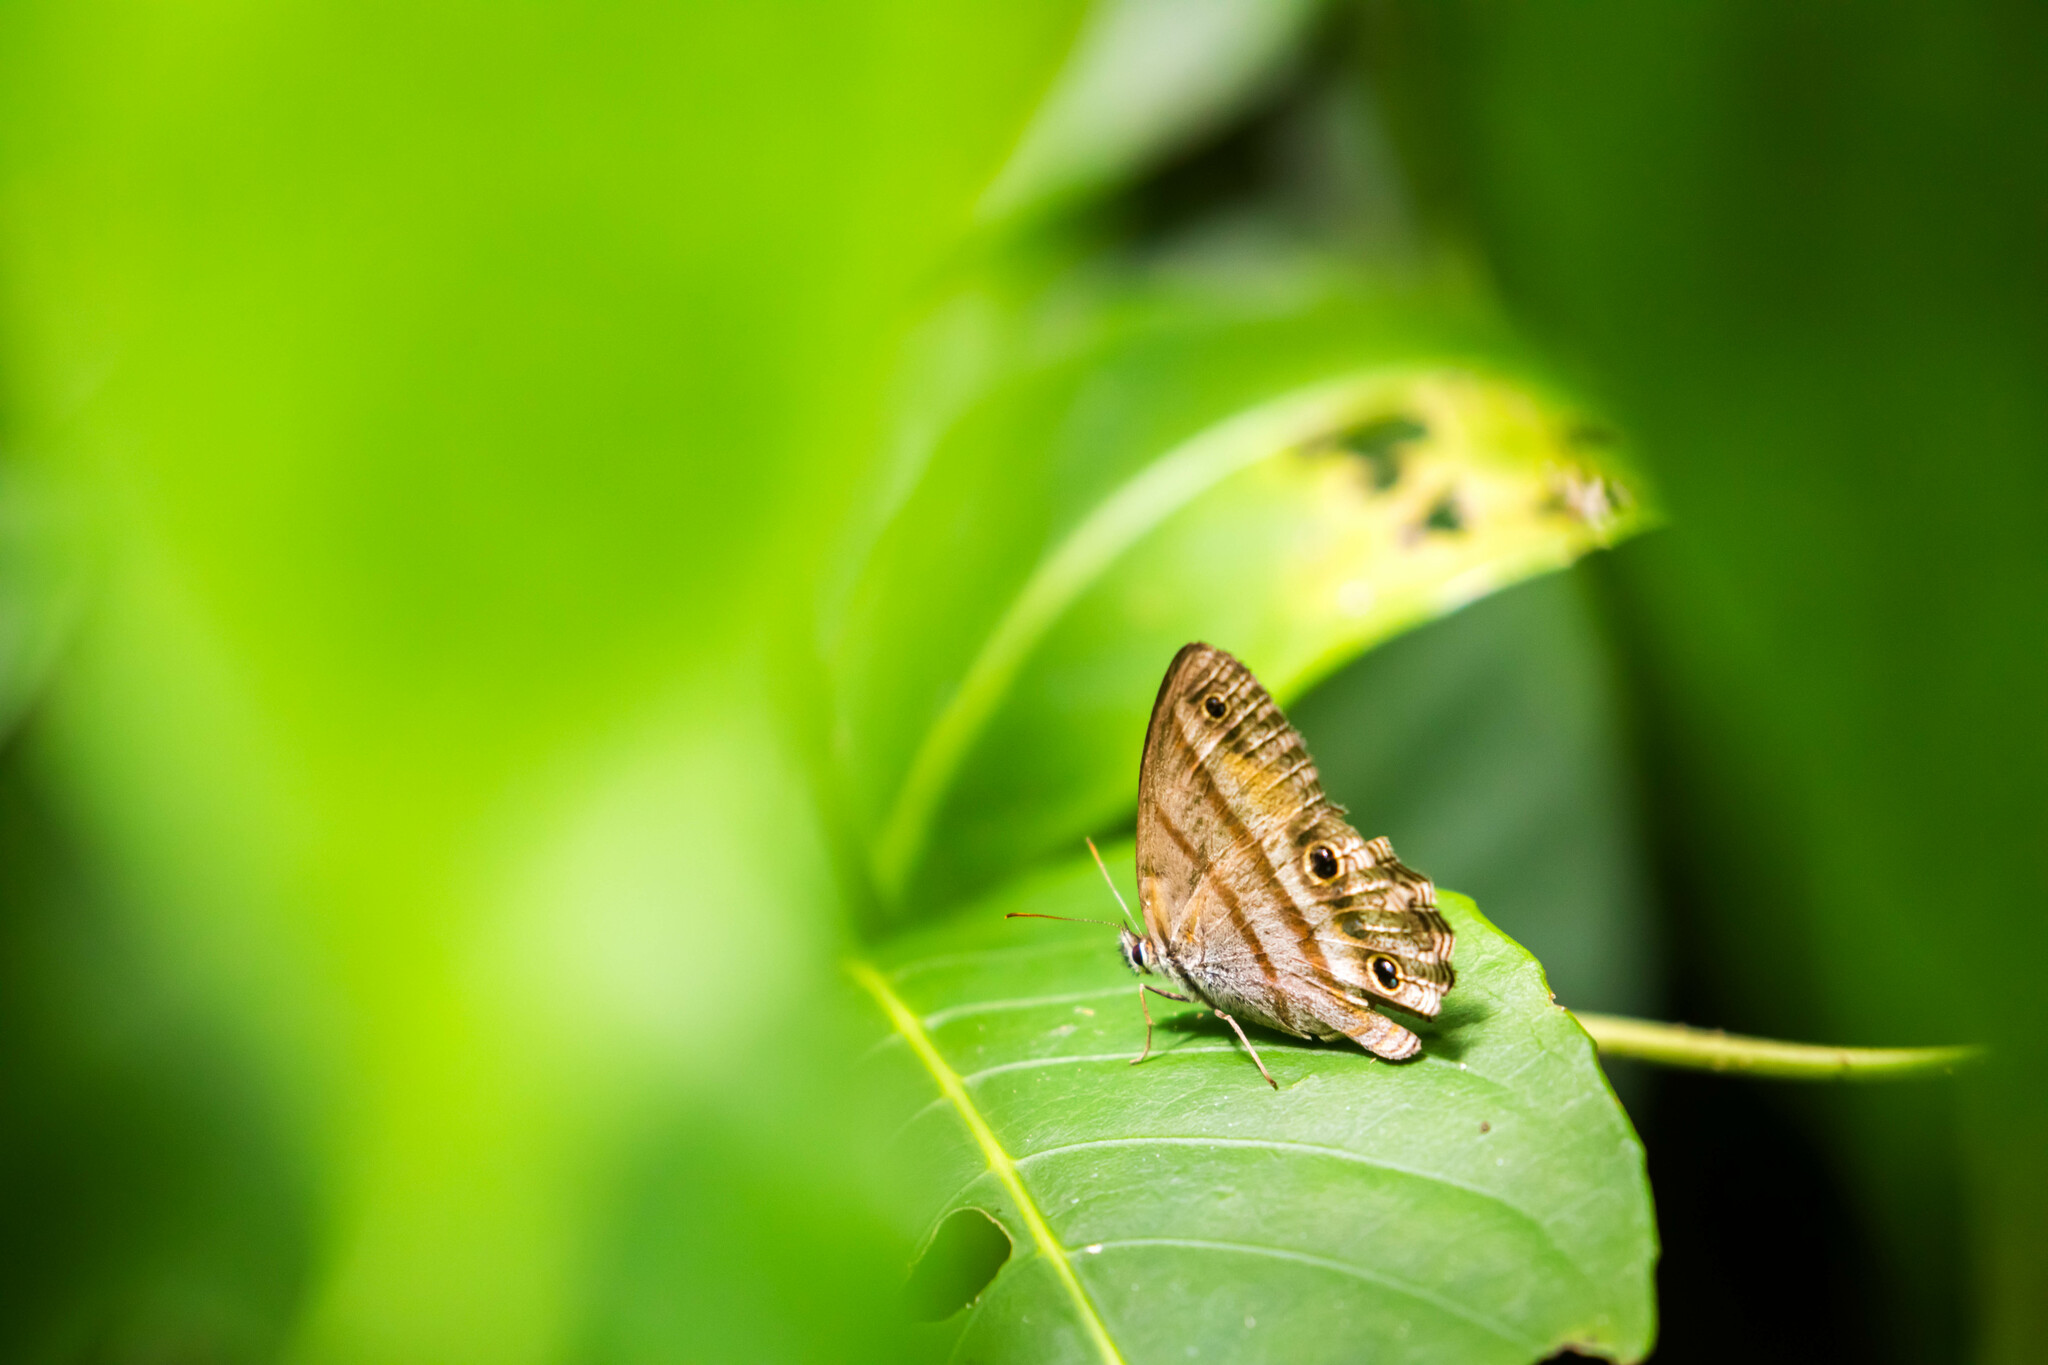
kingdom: Animalia
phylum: Arthropoda
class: Insecta
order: Lepidoptera
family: Nymphalidae
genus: Argyreuptychia
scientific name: Argyreuptychia penelope
